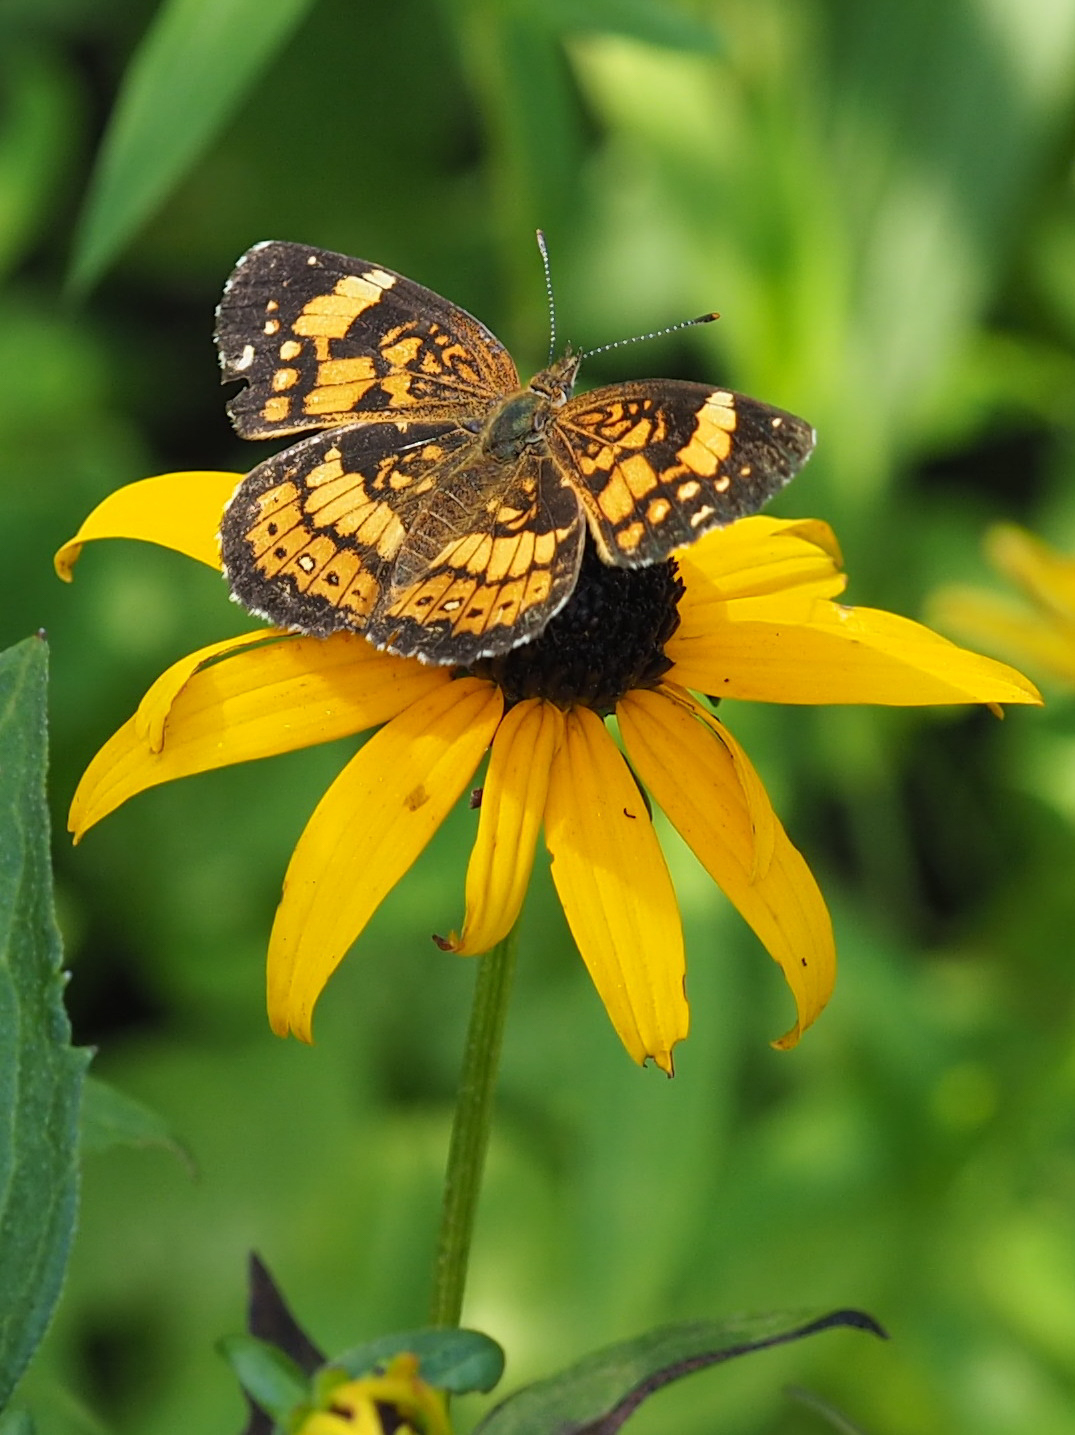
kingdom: Animalia
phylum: Arthropoda
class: Insecta
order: Lepidoptera
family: Nymphalidae
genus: Chlosyne
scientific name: Chlosyne nycteis
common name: Silvery checkerspot
